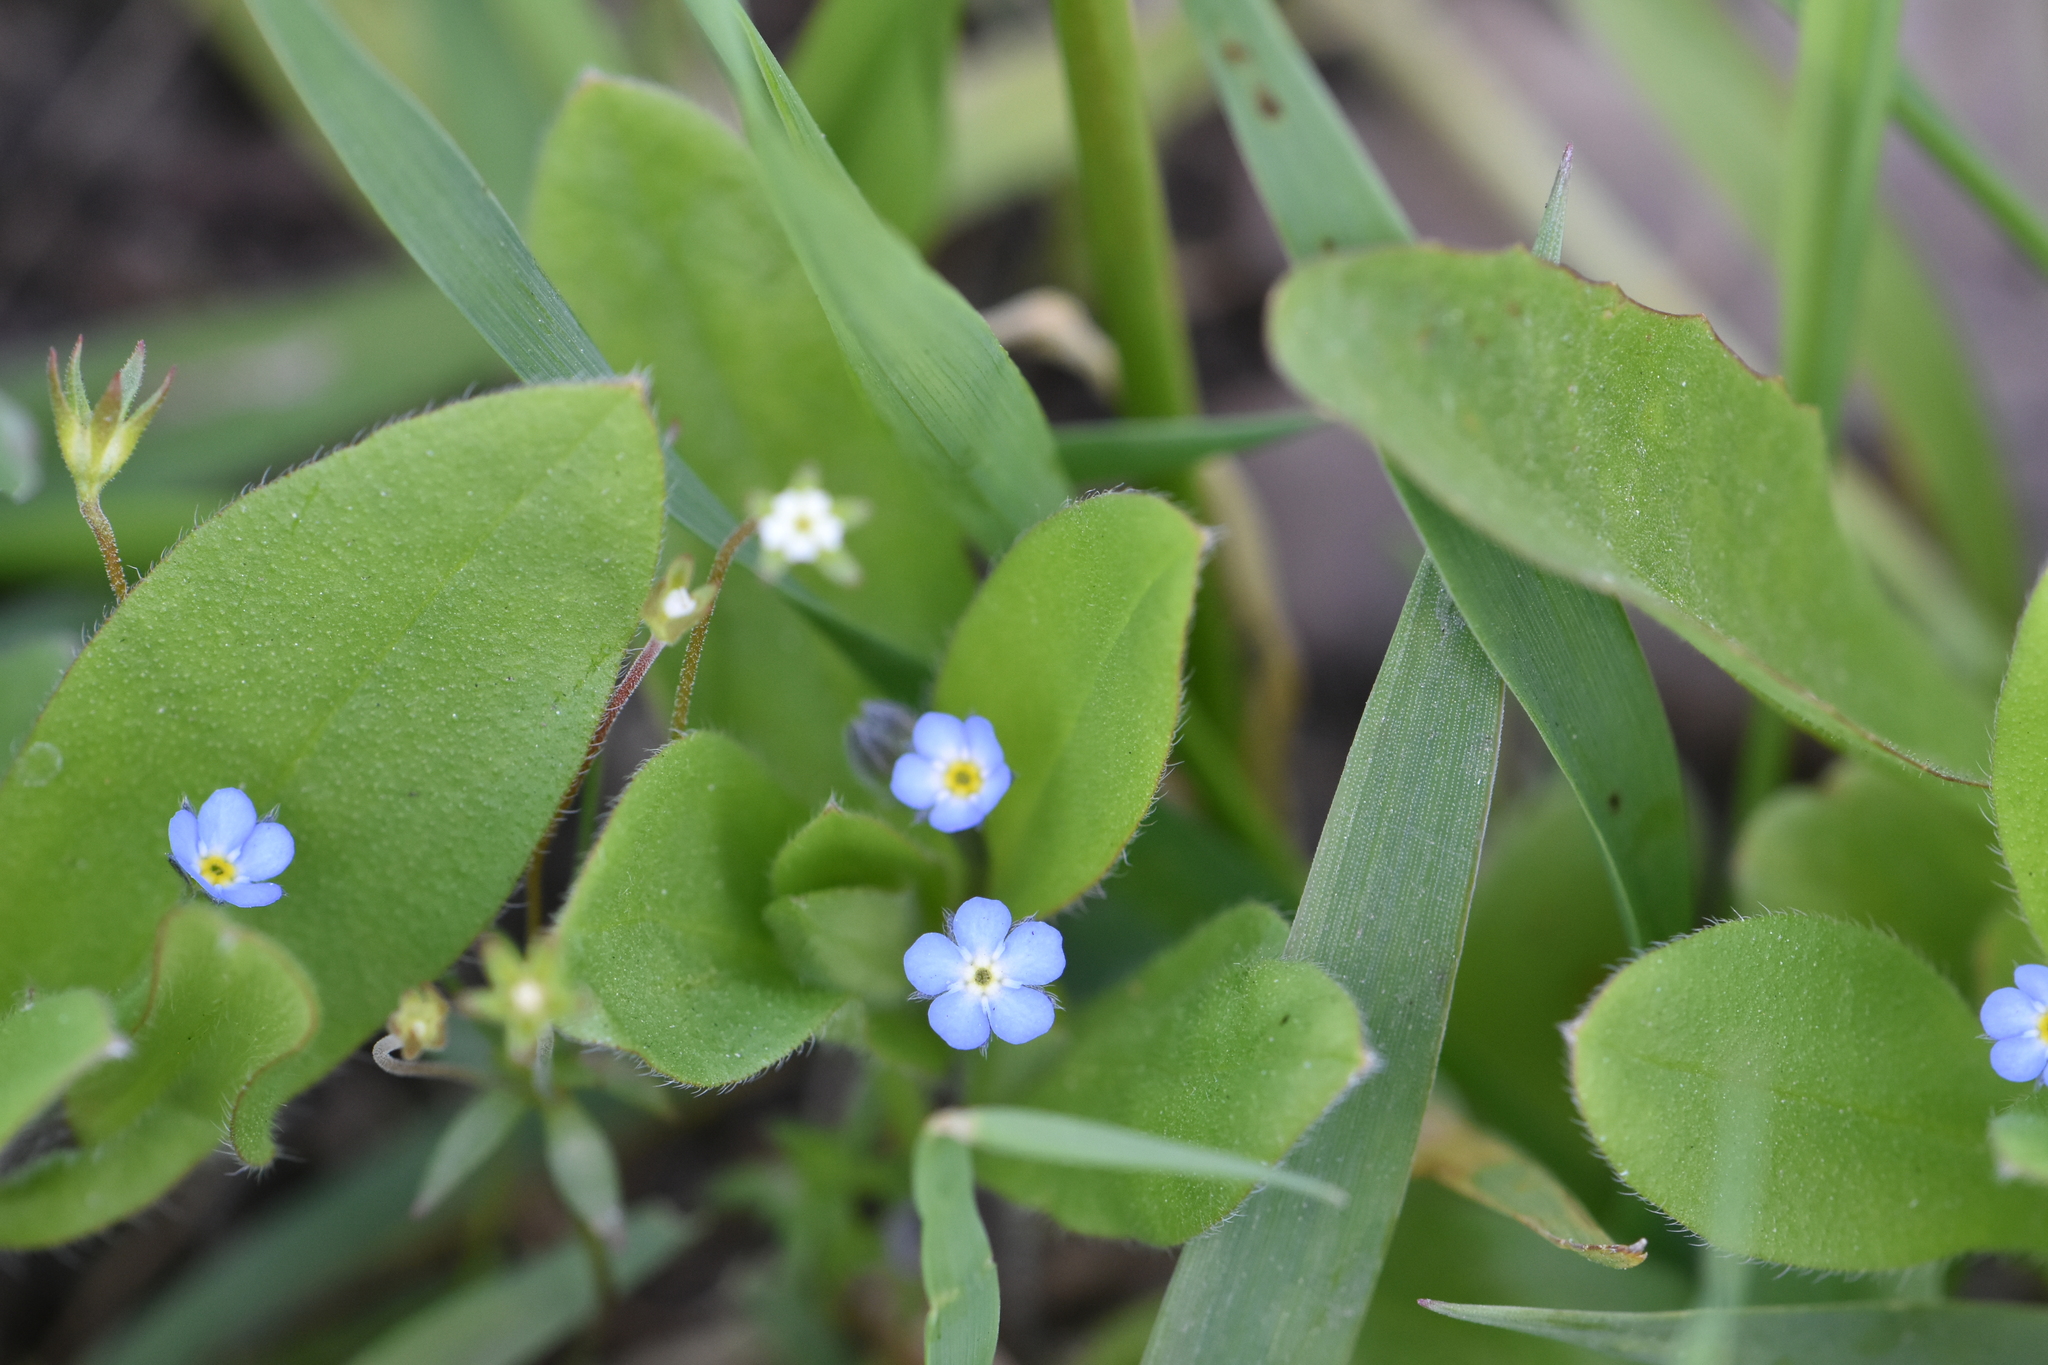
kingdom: Plantae
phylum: Tracheophyta
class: Magnoliopsida
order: Boraginales
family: Boraginaceae
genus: Myosotis
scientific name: Myosotis sparsiflora
